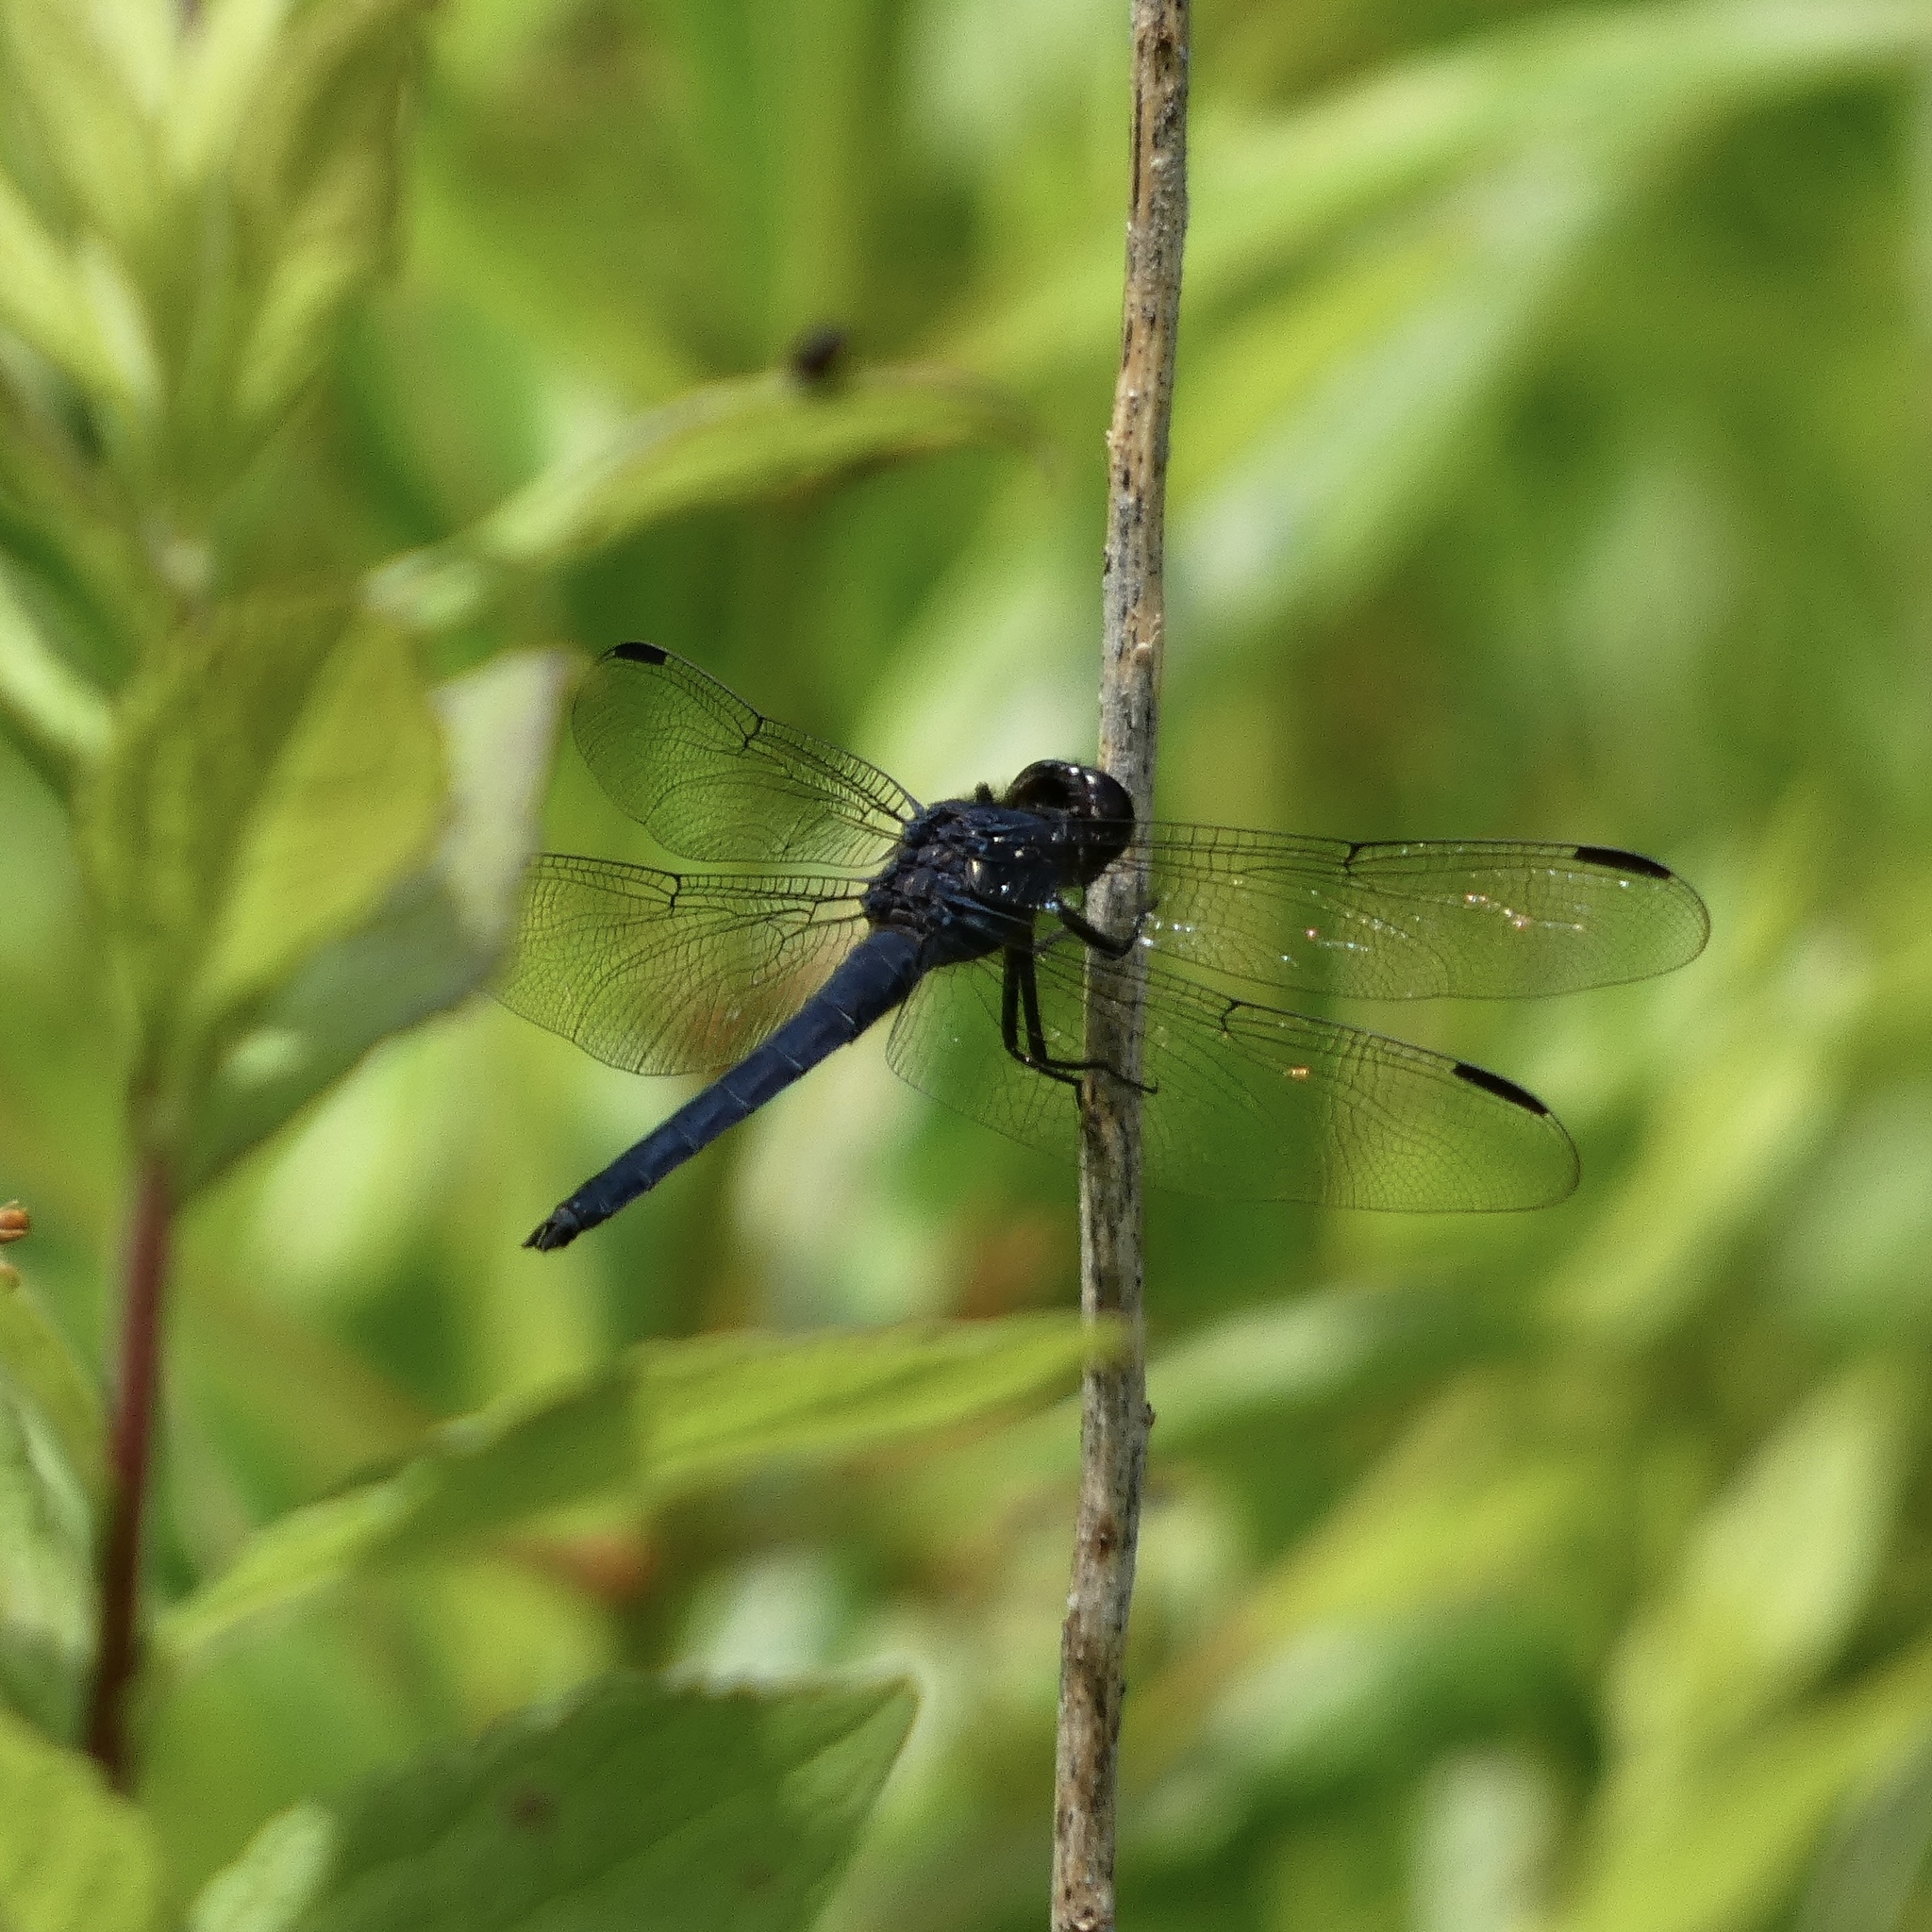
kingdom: Animalia
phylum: Arthropoda
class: Insecta
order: Odonata
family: Libellulidae
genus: Libellula
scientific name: Libellula incesta
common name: Slaty skimmer
